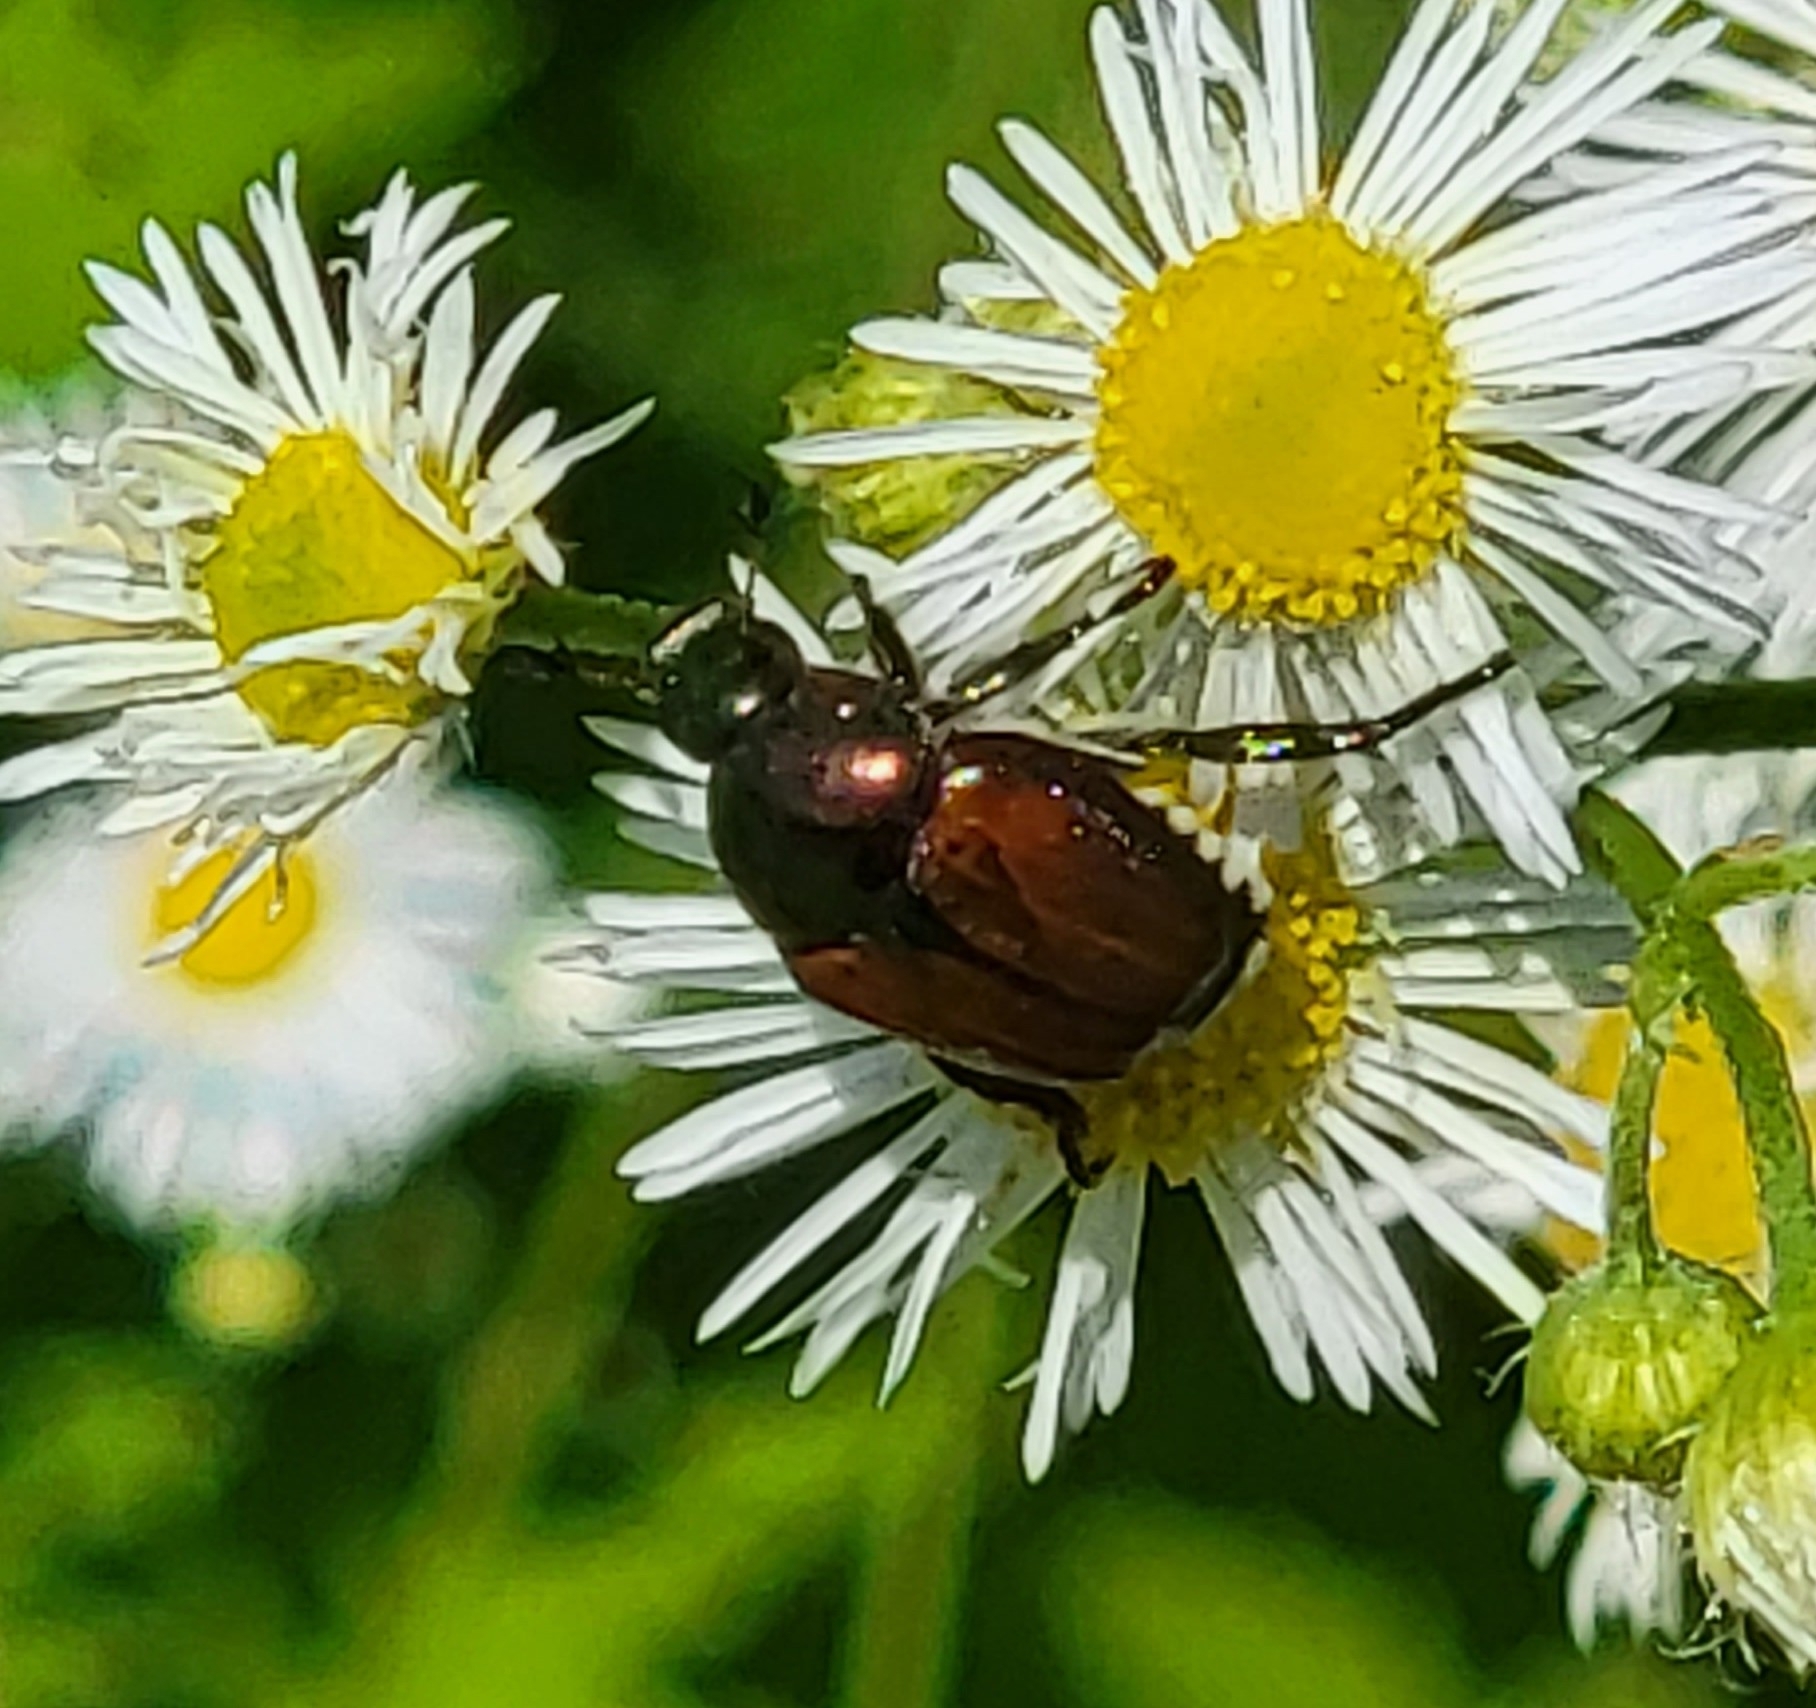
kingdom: Animalia
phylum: Arthropoda
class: Insecta
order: Coleoptera
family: Scarabaeidae
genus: Popillia
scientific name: Popillia japonica
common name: Japanese beetle
